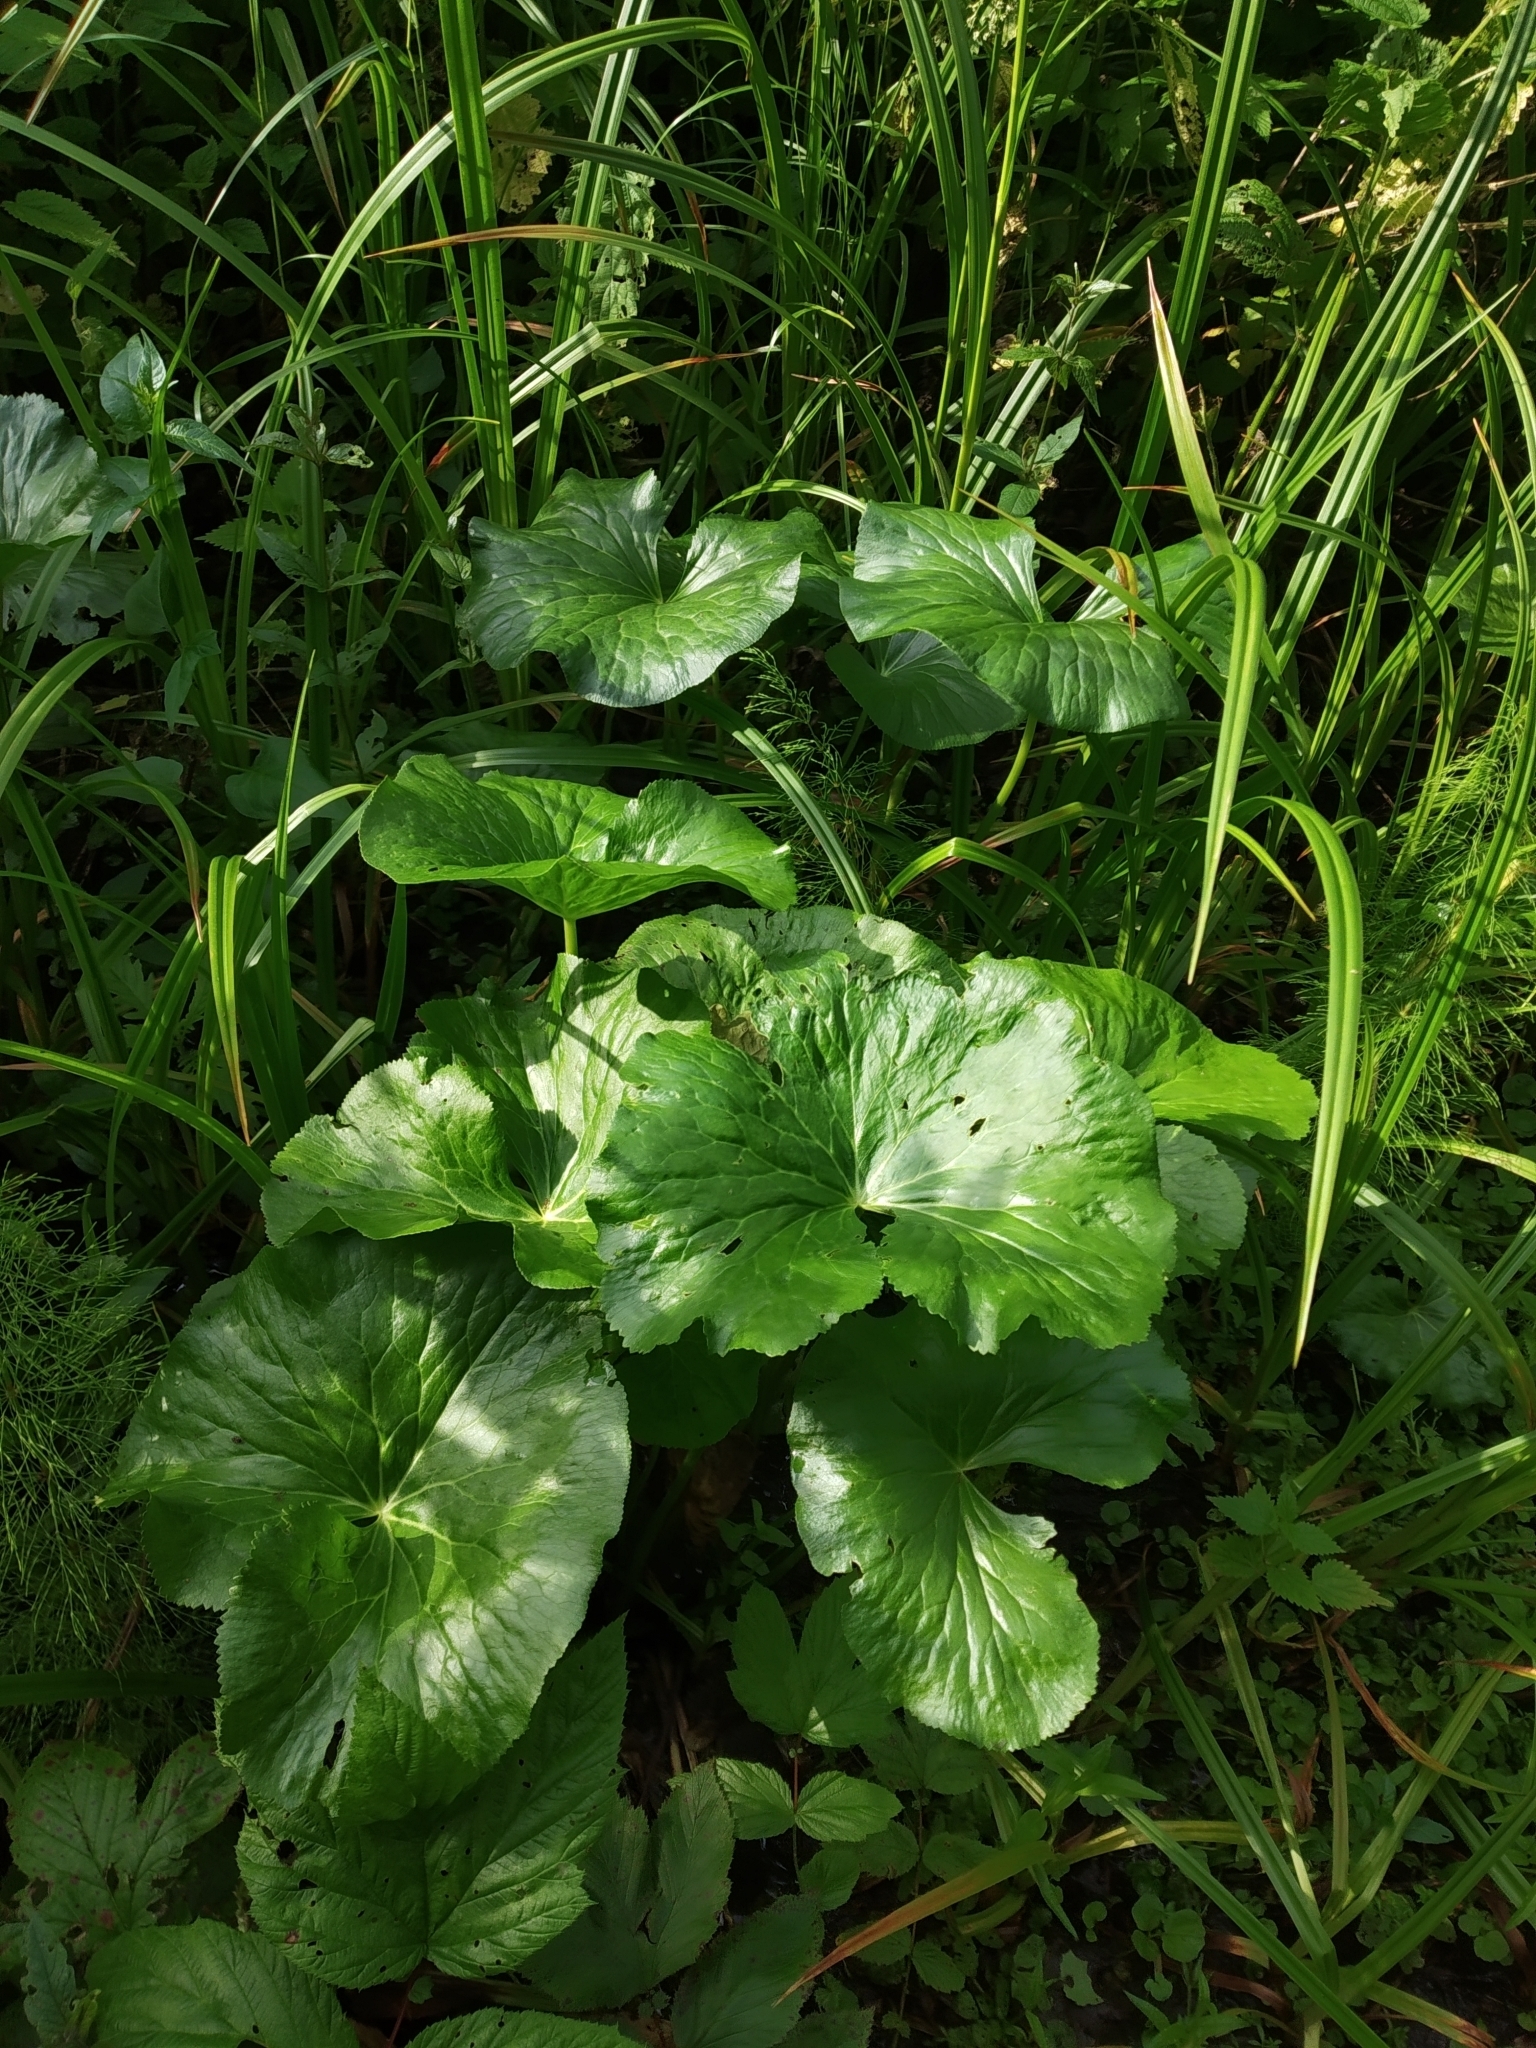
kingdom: Plantae
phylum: Tracheophyta
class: Magnoliopsida
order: Ranunculales
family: Ranunculaceae
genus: Caltha
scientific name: Caltha palustris
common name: Marsh marigold
